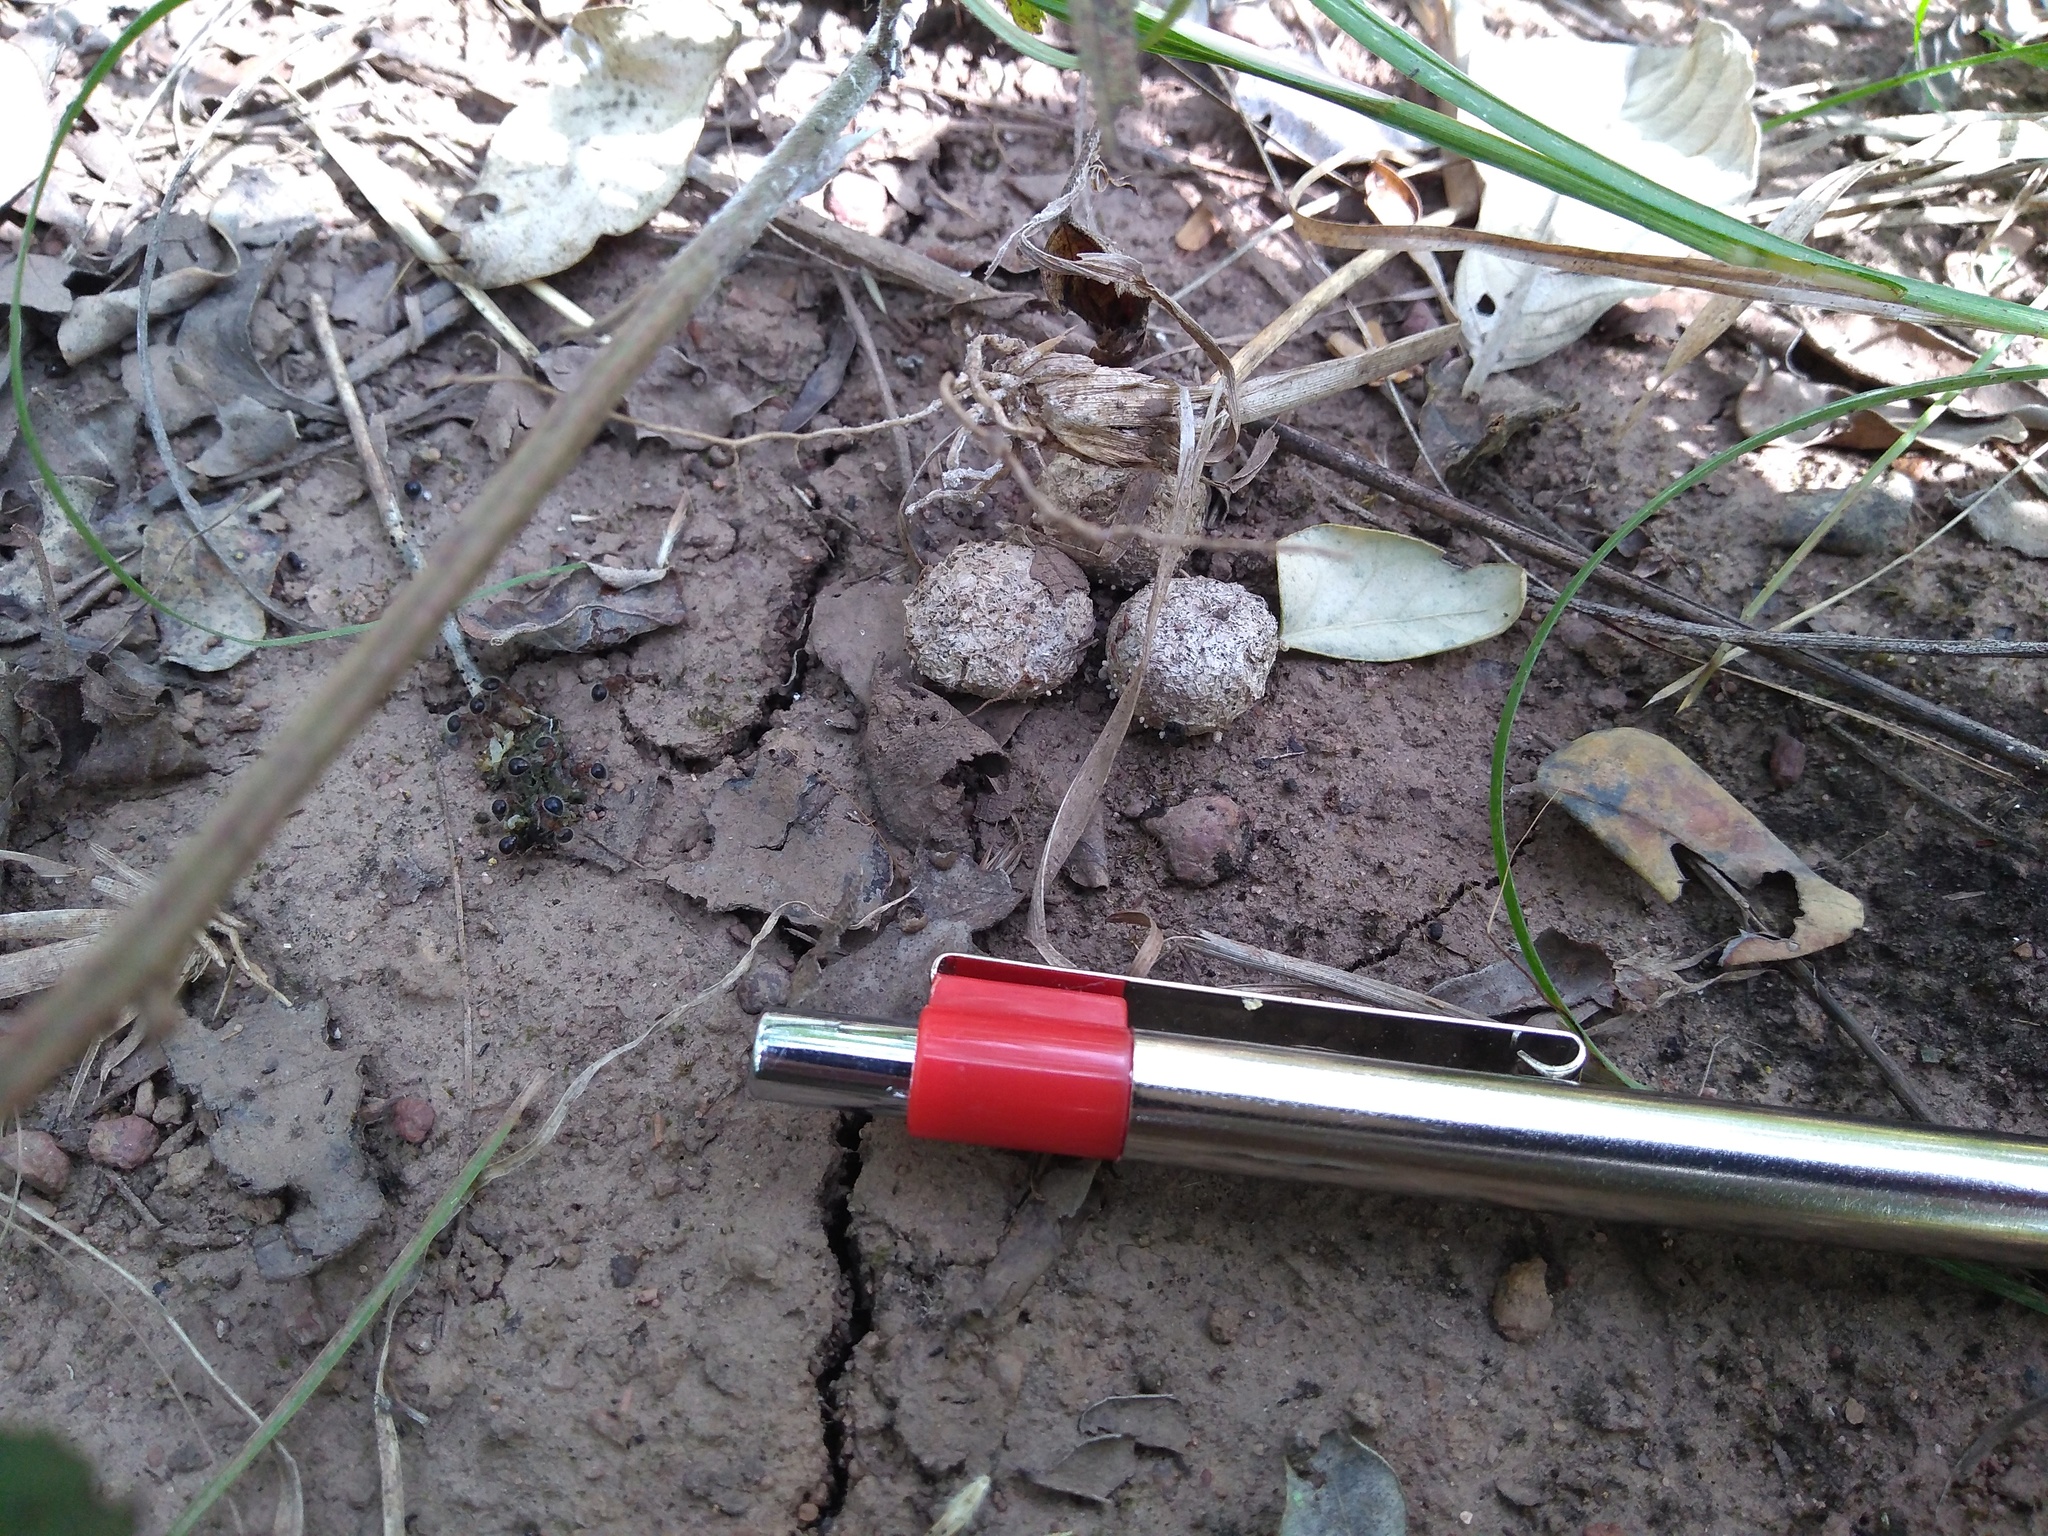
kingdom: Animalia
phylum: Chordata
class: Mammalia
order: Lagomorpha
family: Leporidae
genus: Lepus
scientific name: Lepus nigricollis
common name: Indian hare
